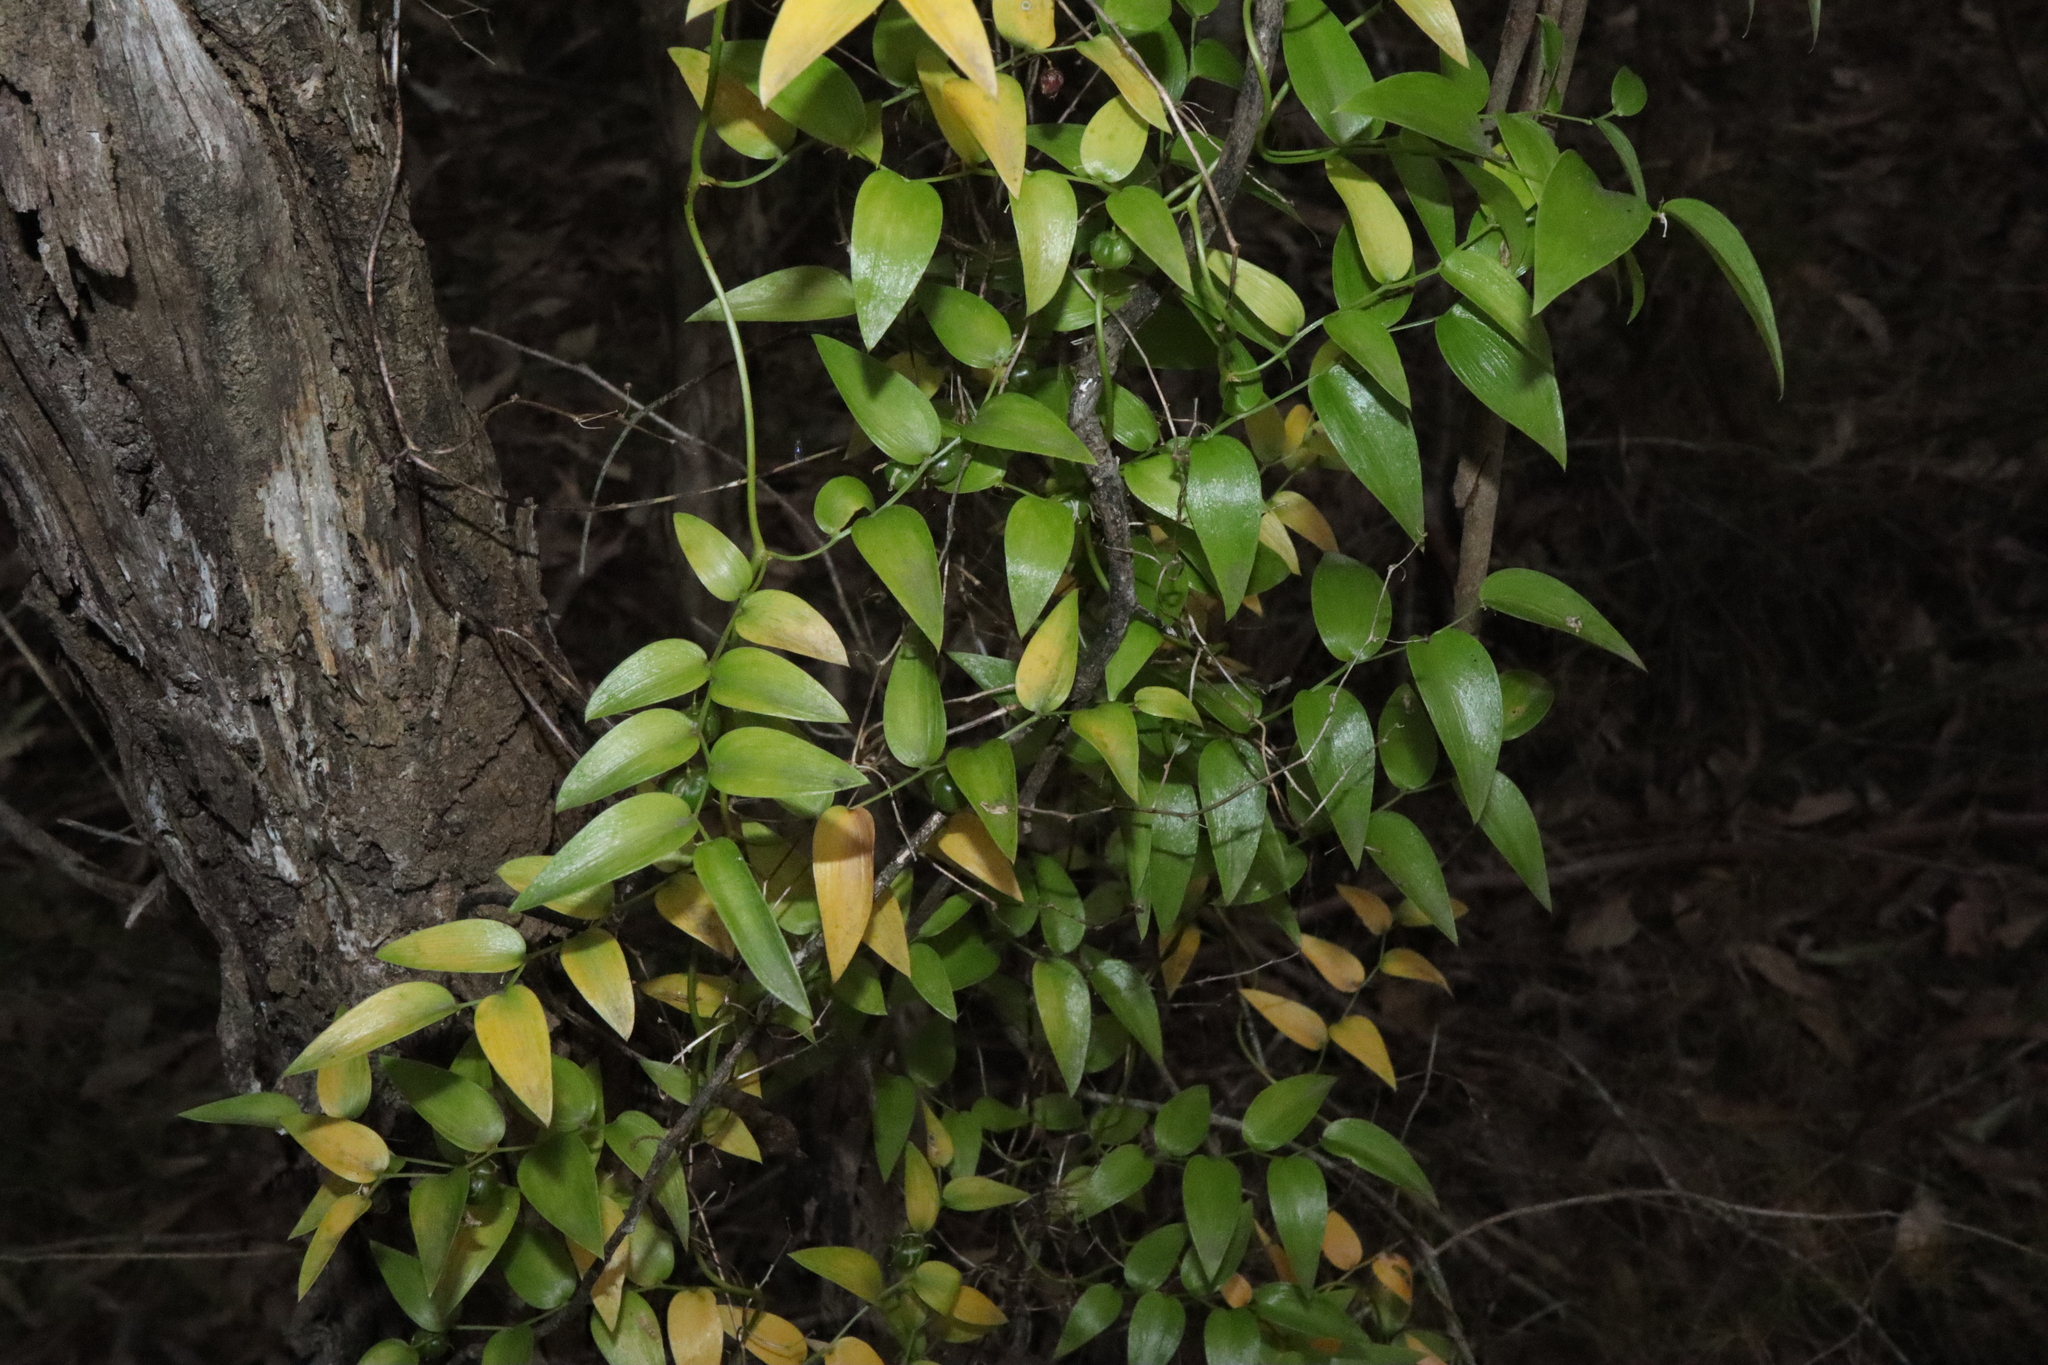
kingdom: Plantae
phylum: Tracheophyta
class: Liliopsida
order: Asparagales
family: Asparagaceae
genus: Asparagus
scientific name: Asparagus asparagoides
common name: African asparagus fern
